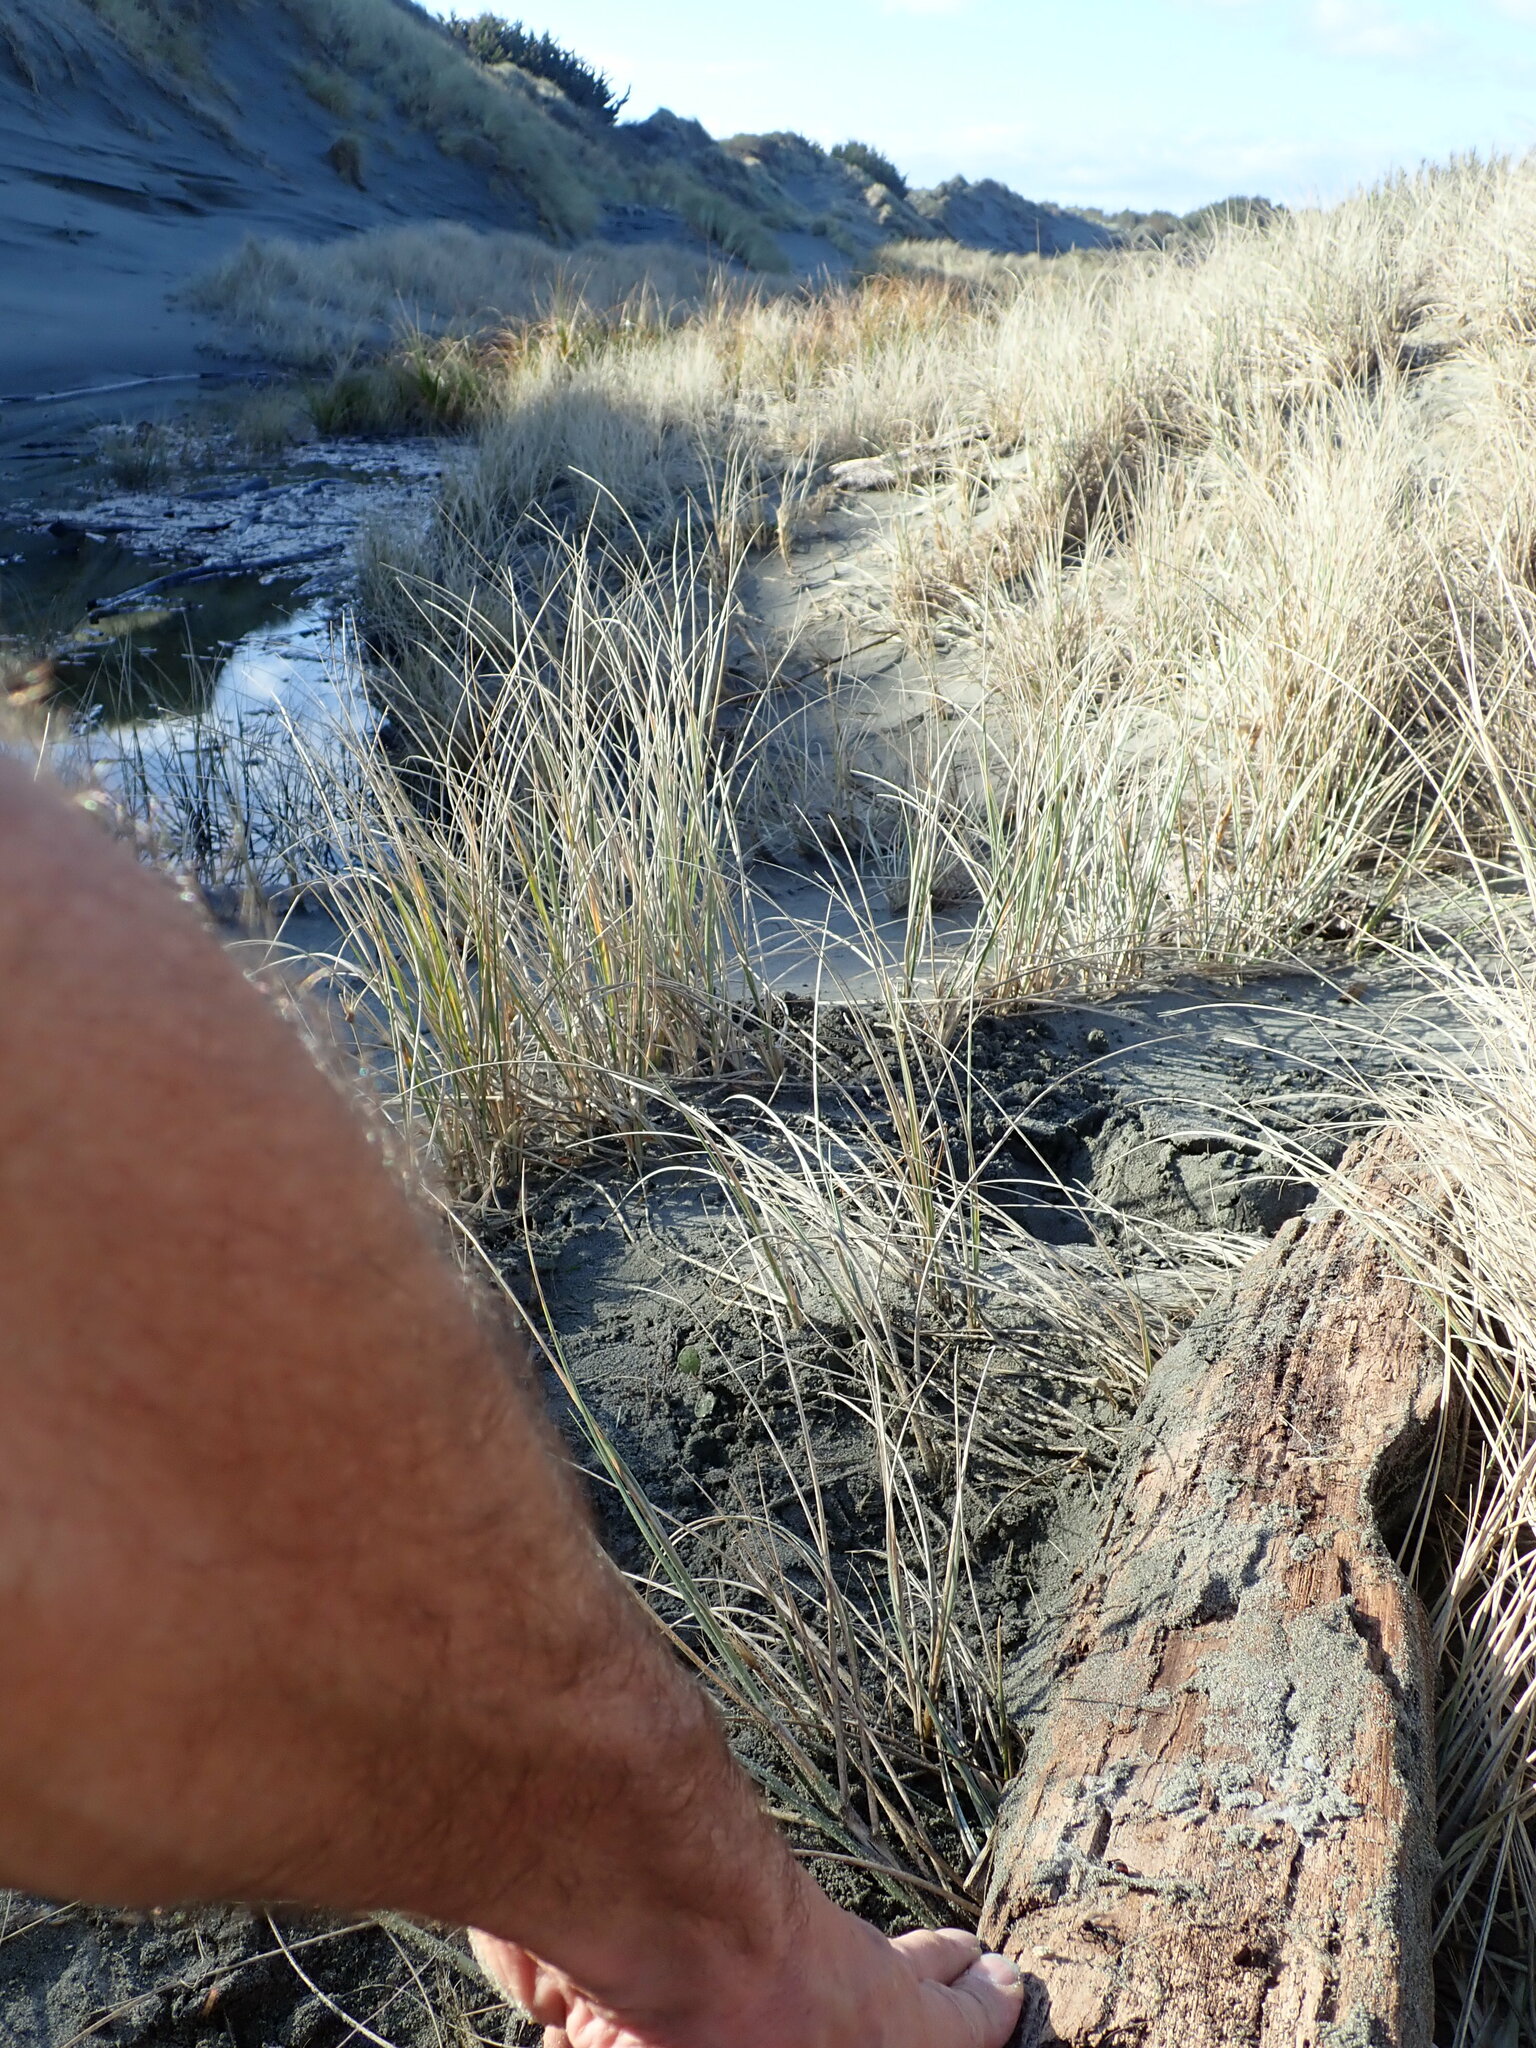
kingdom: Animalia
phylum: Arthropoda
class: Arachnida
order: Araneae
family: Theridiidae
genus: Latrodectus
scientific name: Latrodectus katipo
